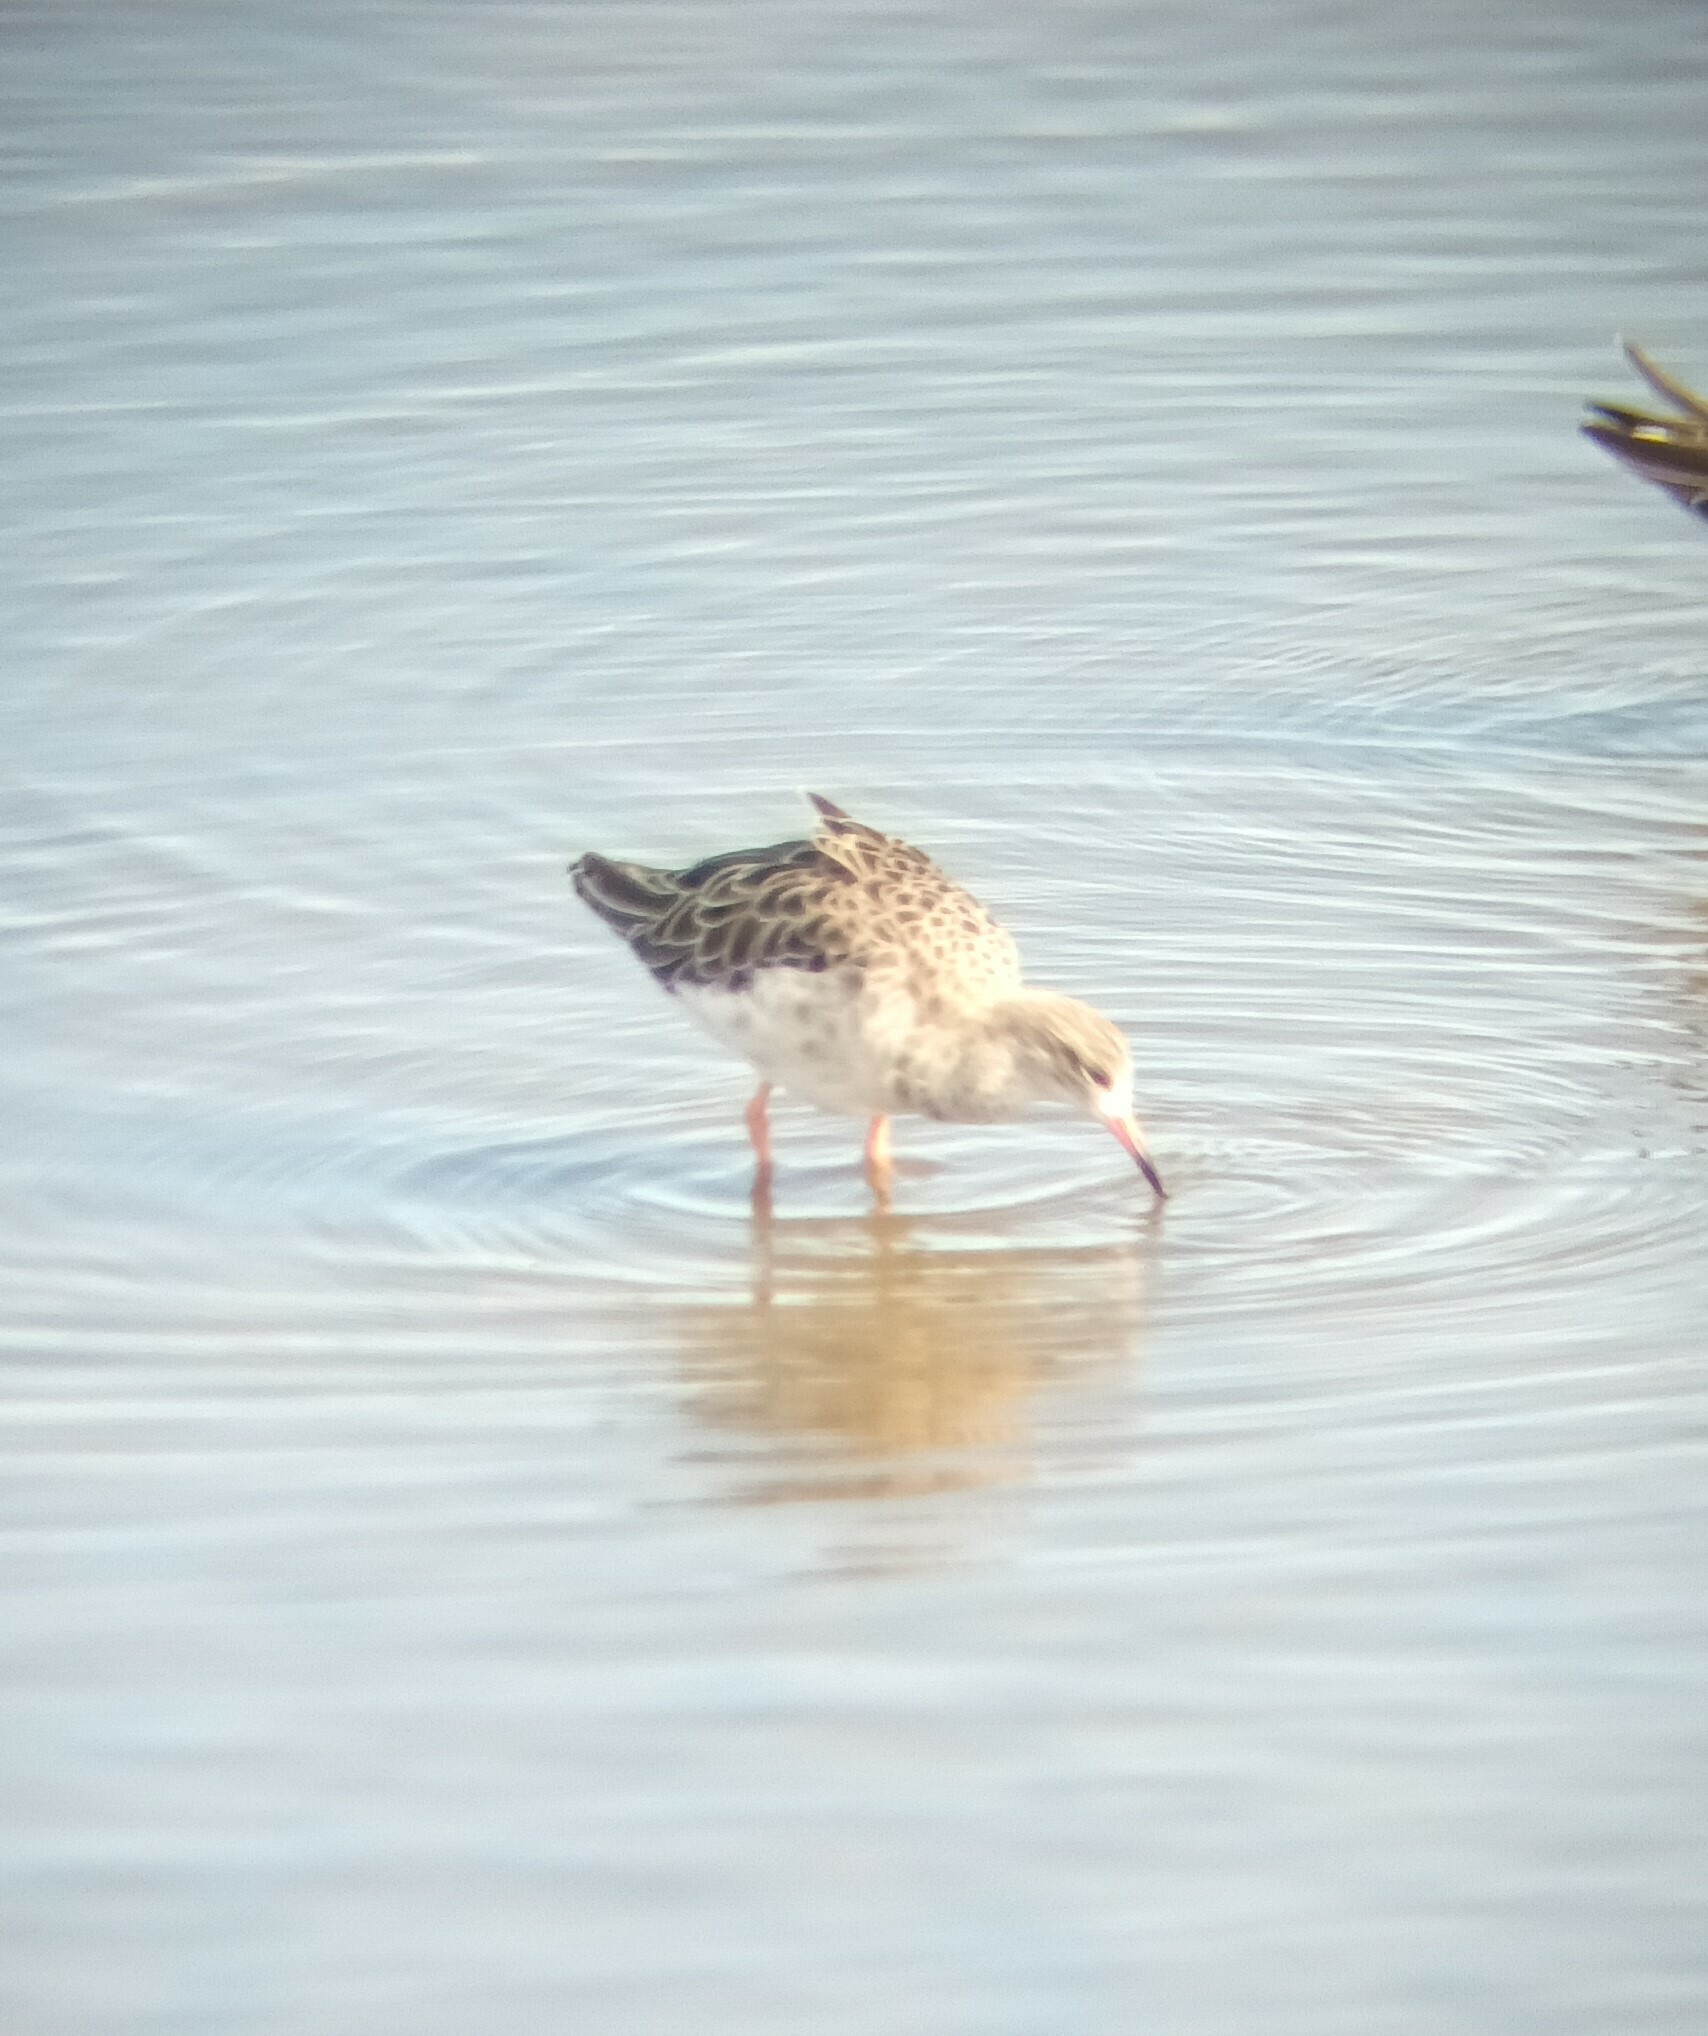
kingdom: Animalia
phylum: Chordata
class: Aves
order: Charadriiformes
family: Scolopacidae
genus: Calidris
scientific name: Calidris pugnax
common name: Ruff
